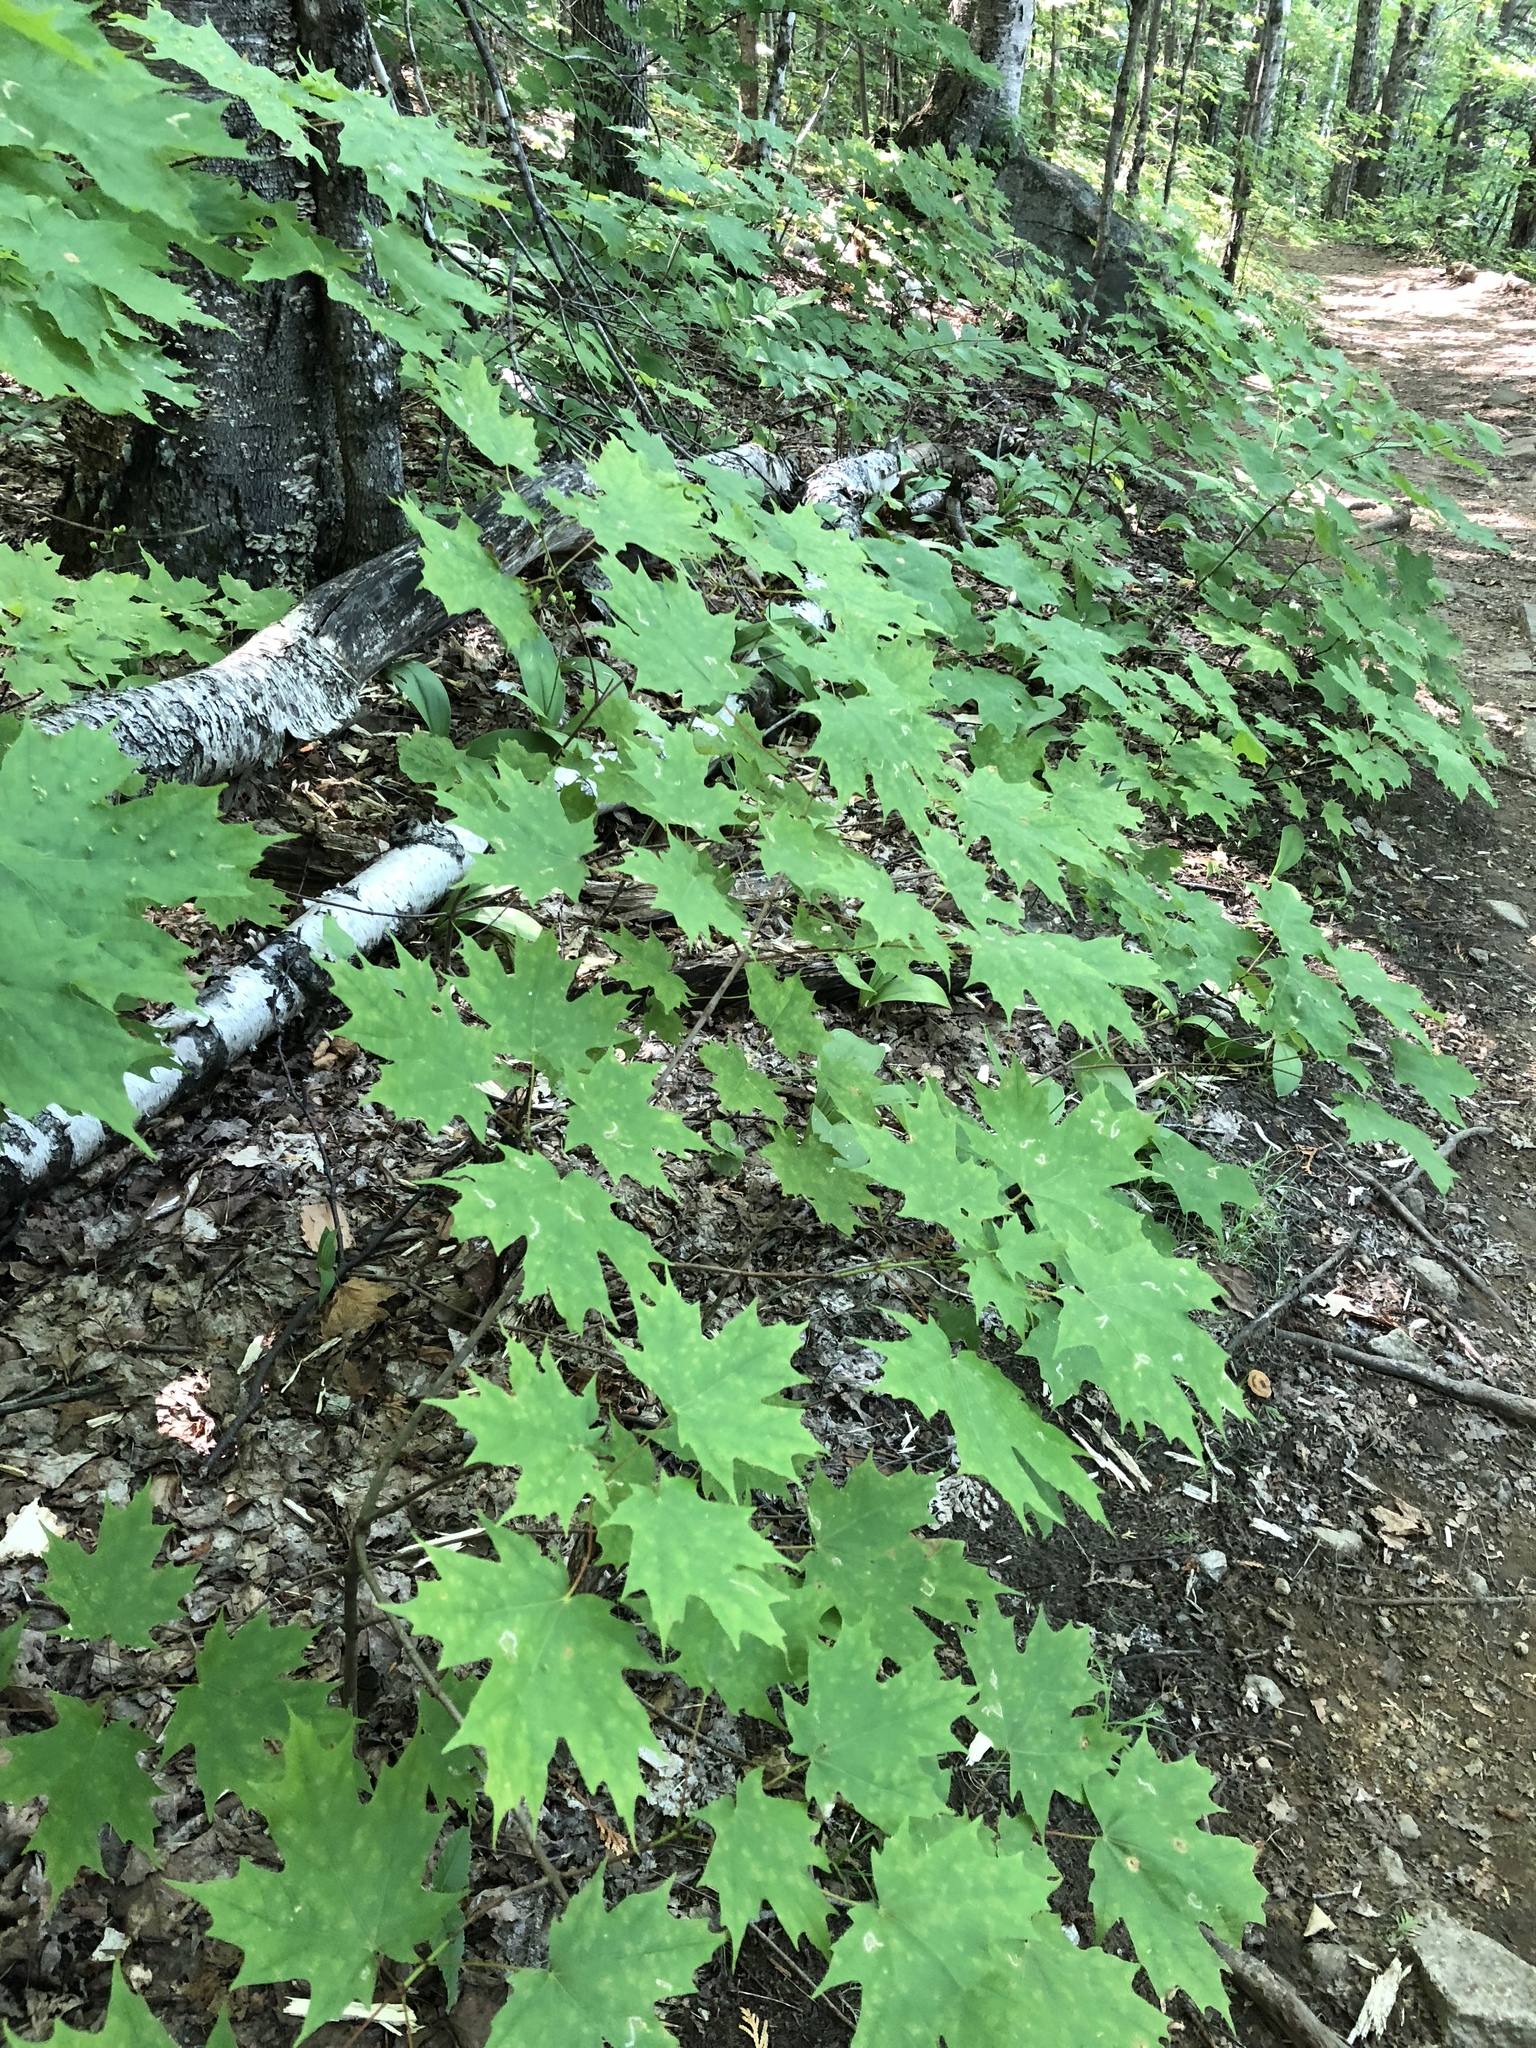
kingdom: Plantae
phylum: Tracheophyta
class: Magnoliopsida
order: Sapindales
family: Sapindaceae
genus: Acer
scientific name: Acer saccharum
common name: Sugar maple
